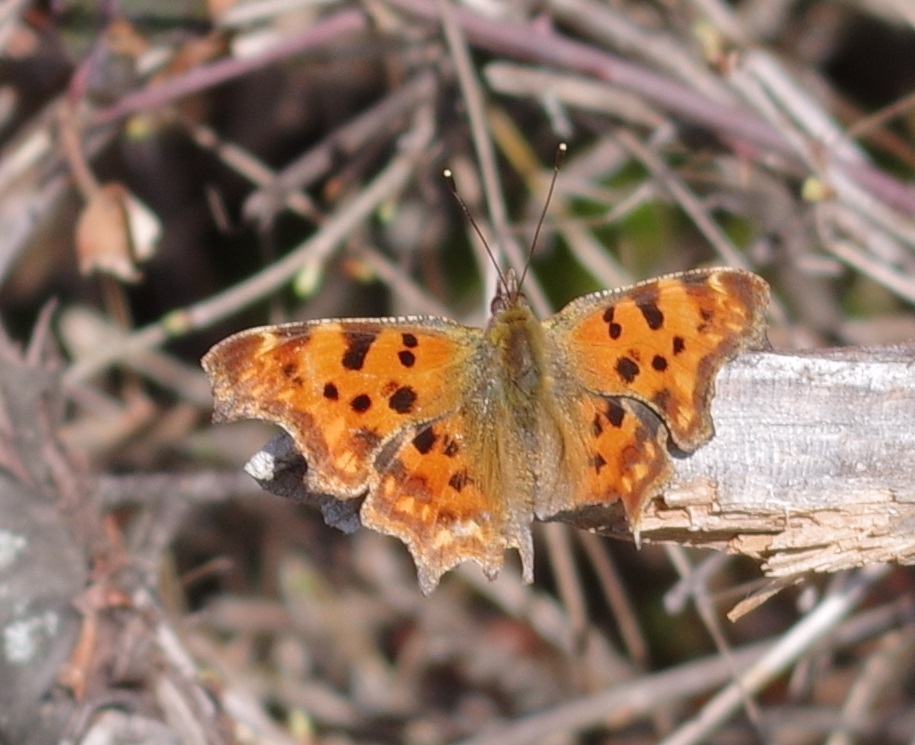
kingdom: Animalia
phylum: Arthropoda
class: Insecta
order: Lepidoptera
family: Nymphalidae
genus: Polygonia
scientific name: Polygonia c-album
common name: Comma
